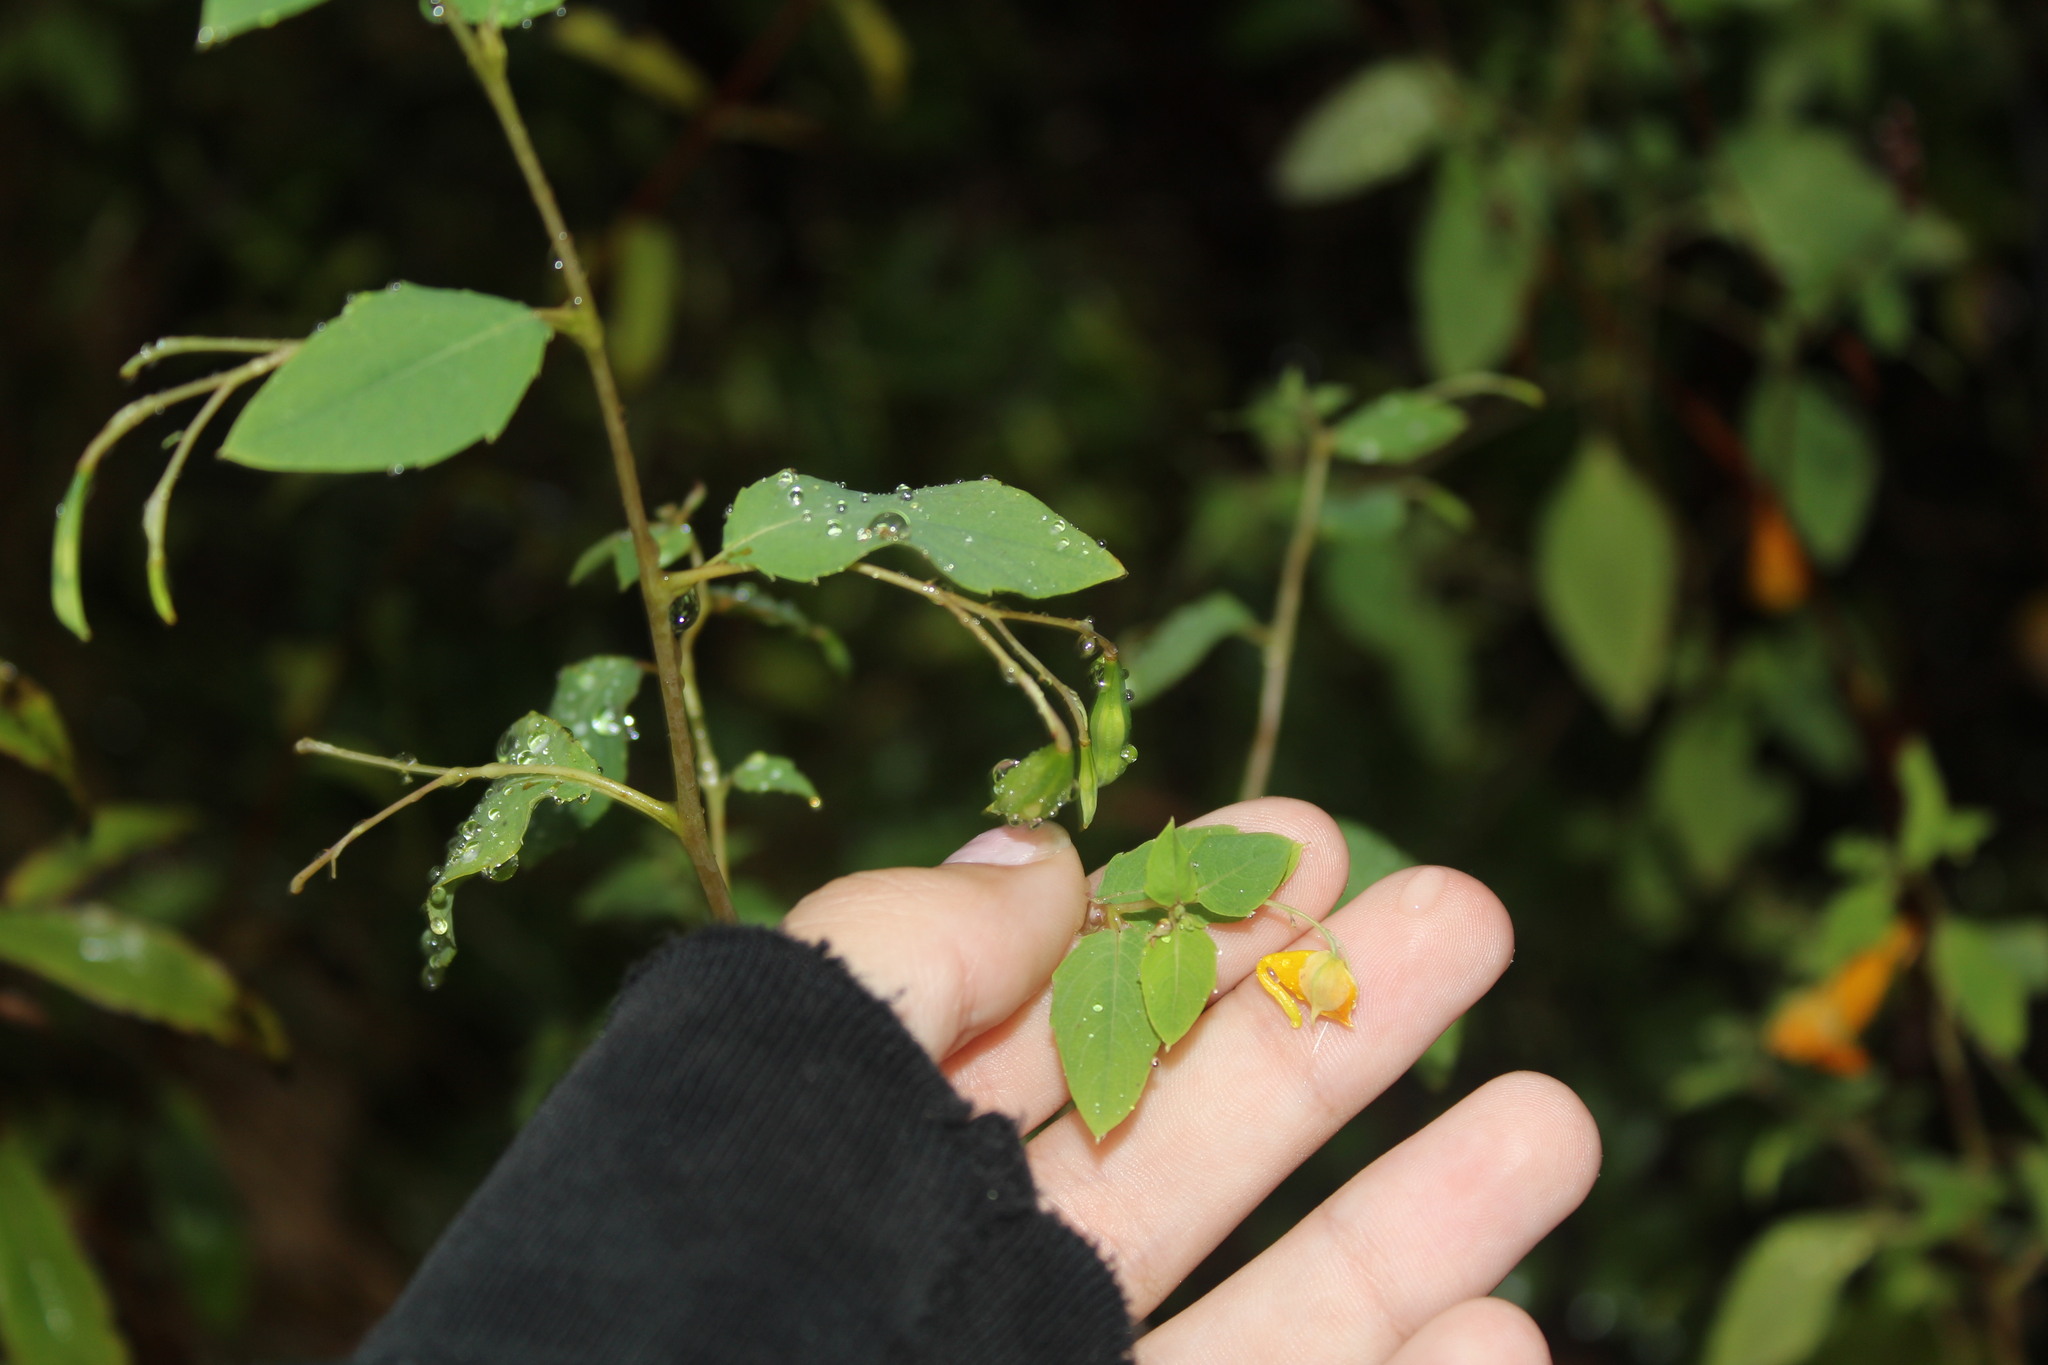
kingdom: Plantae
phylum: Tracheophyta
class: Magnoliopsida
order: Ericales
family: Balsaminaceae
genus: Impatiens
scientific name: Impatiens capensis
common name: Orange balsam
